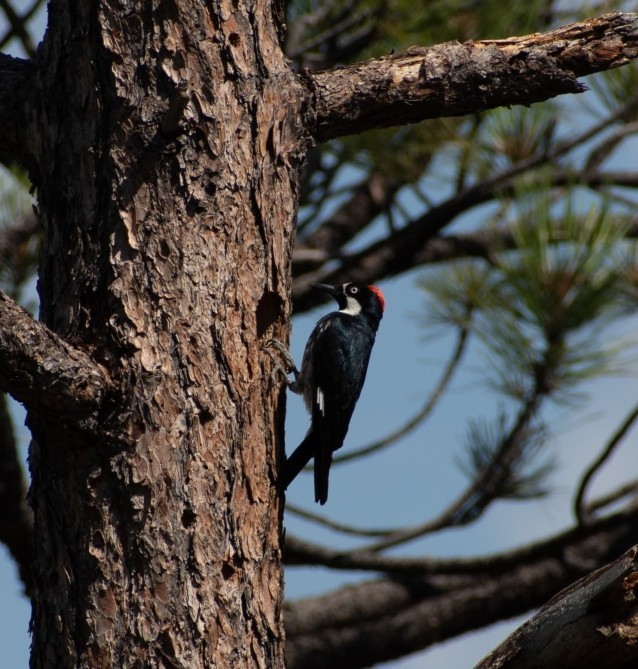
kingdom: Animalia
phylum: Chordata
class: Aves
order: Piciformes
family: Picidae
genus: Melanerpes
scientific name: Melanerpes formicivorus
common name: Acorn woodpecker
